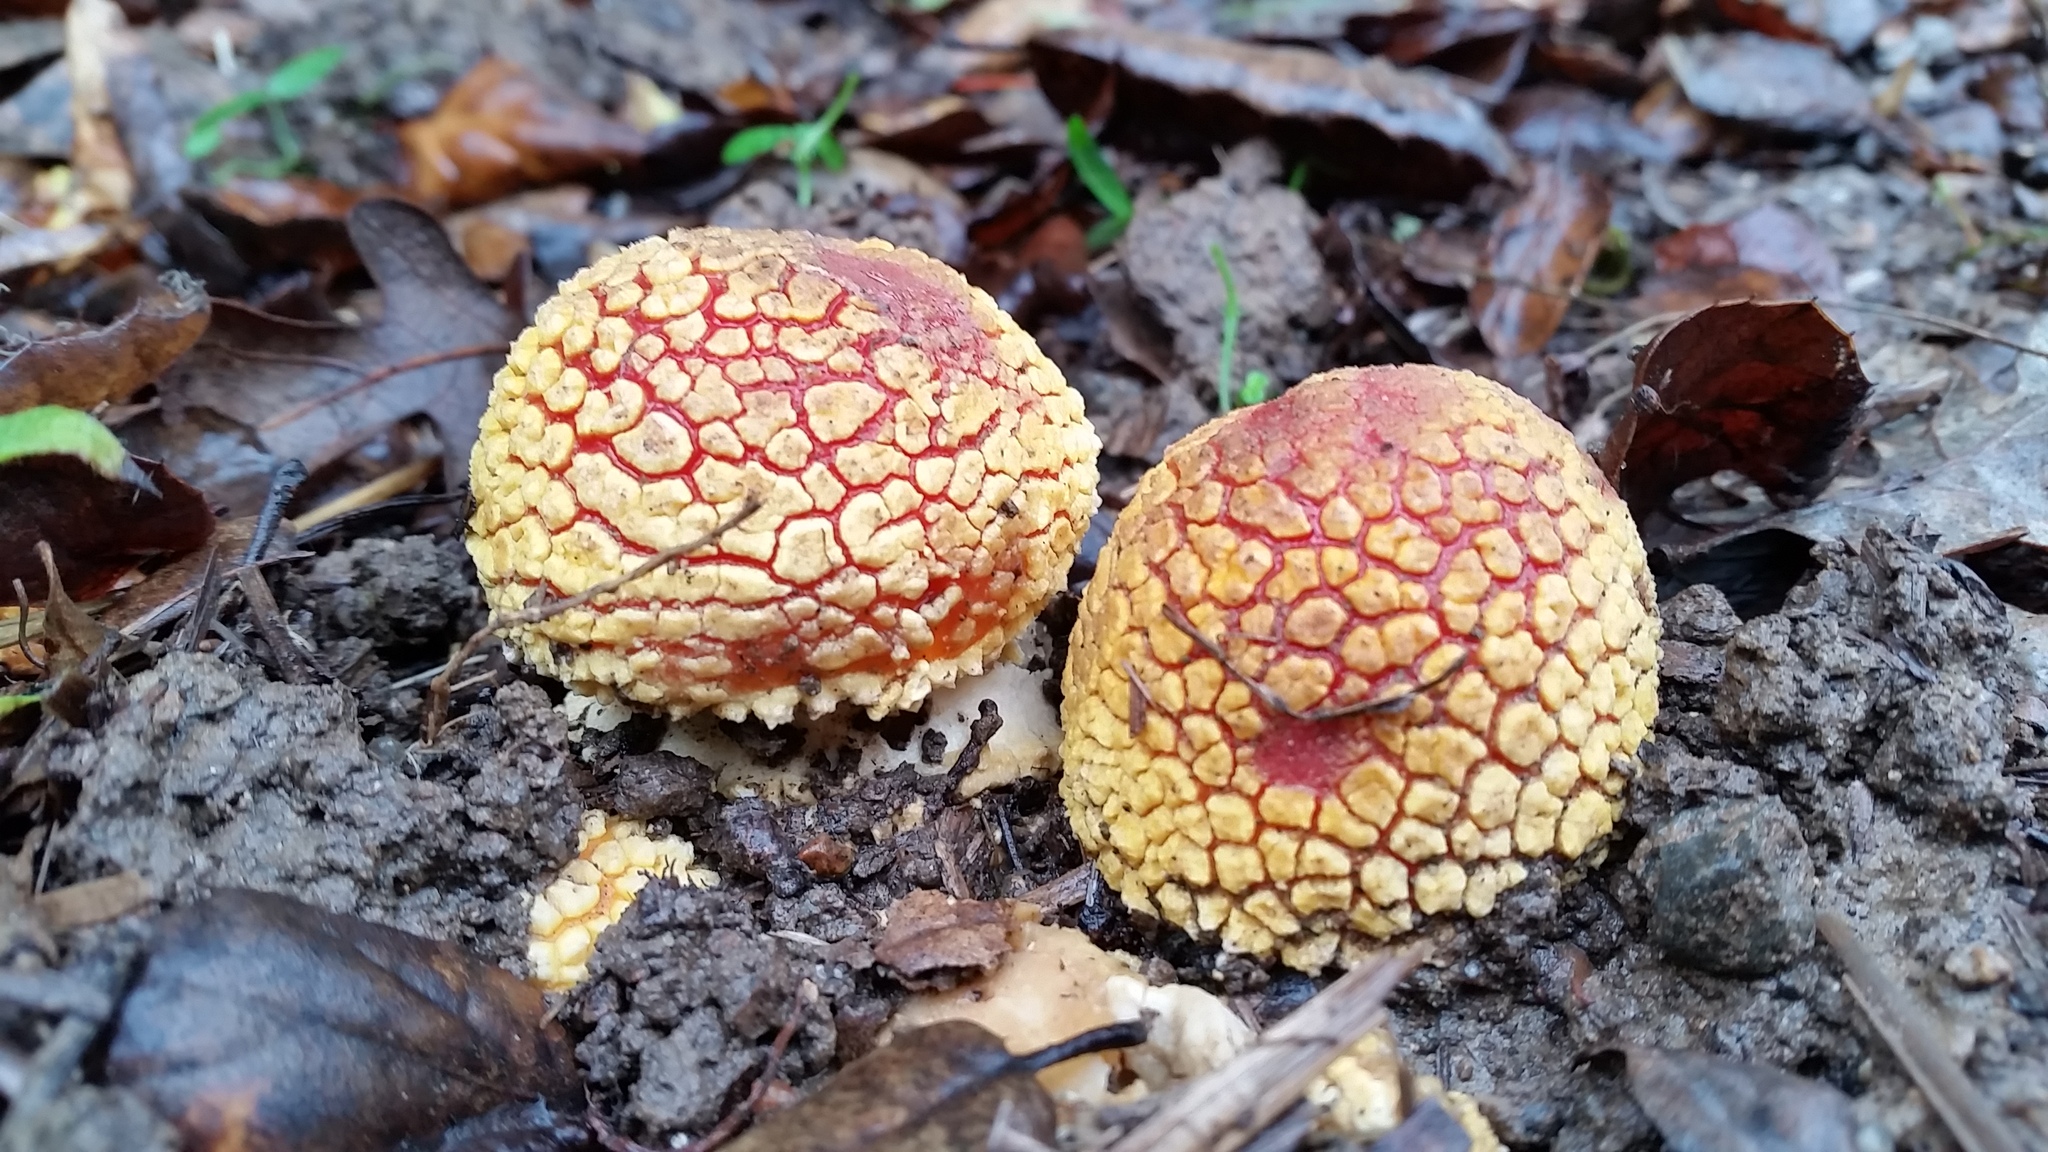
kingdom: Fungi
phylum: Basidiomycota
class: Agaricomycetes
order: Agaricales
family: Amanitaceae
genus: Amanita
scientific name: Amanita muscaria
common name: Fly agaric
